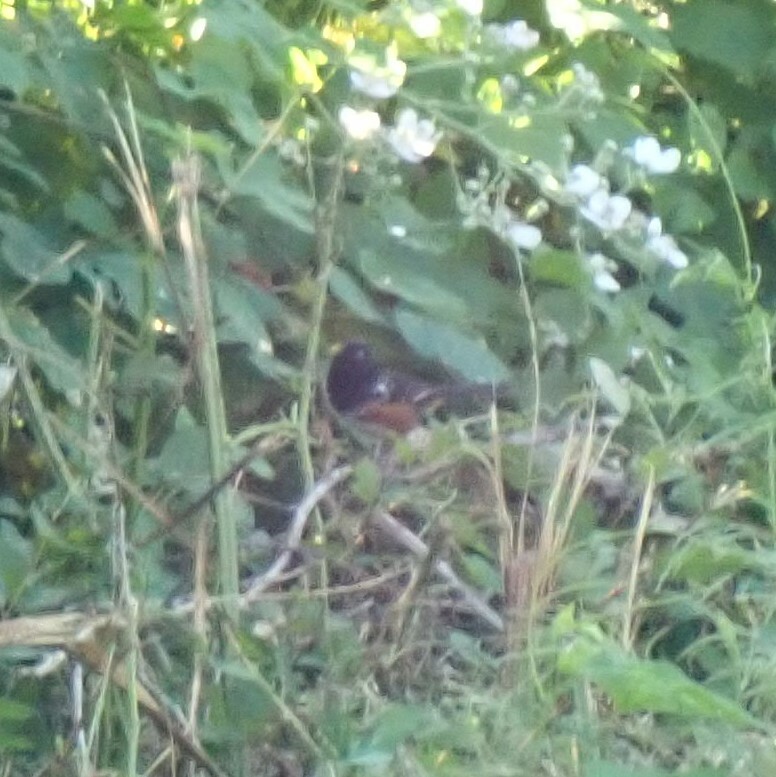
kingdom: Animalia
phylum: Chordata
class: Aves
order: Passeriformes
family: Passerellidae
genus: Pipilo
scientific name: Pipilo maculatus
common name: Spotted towhee
